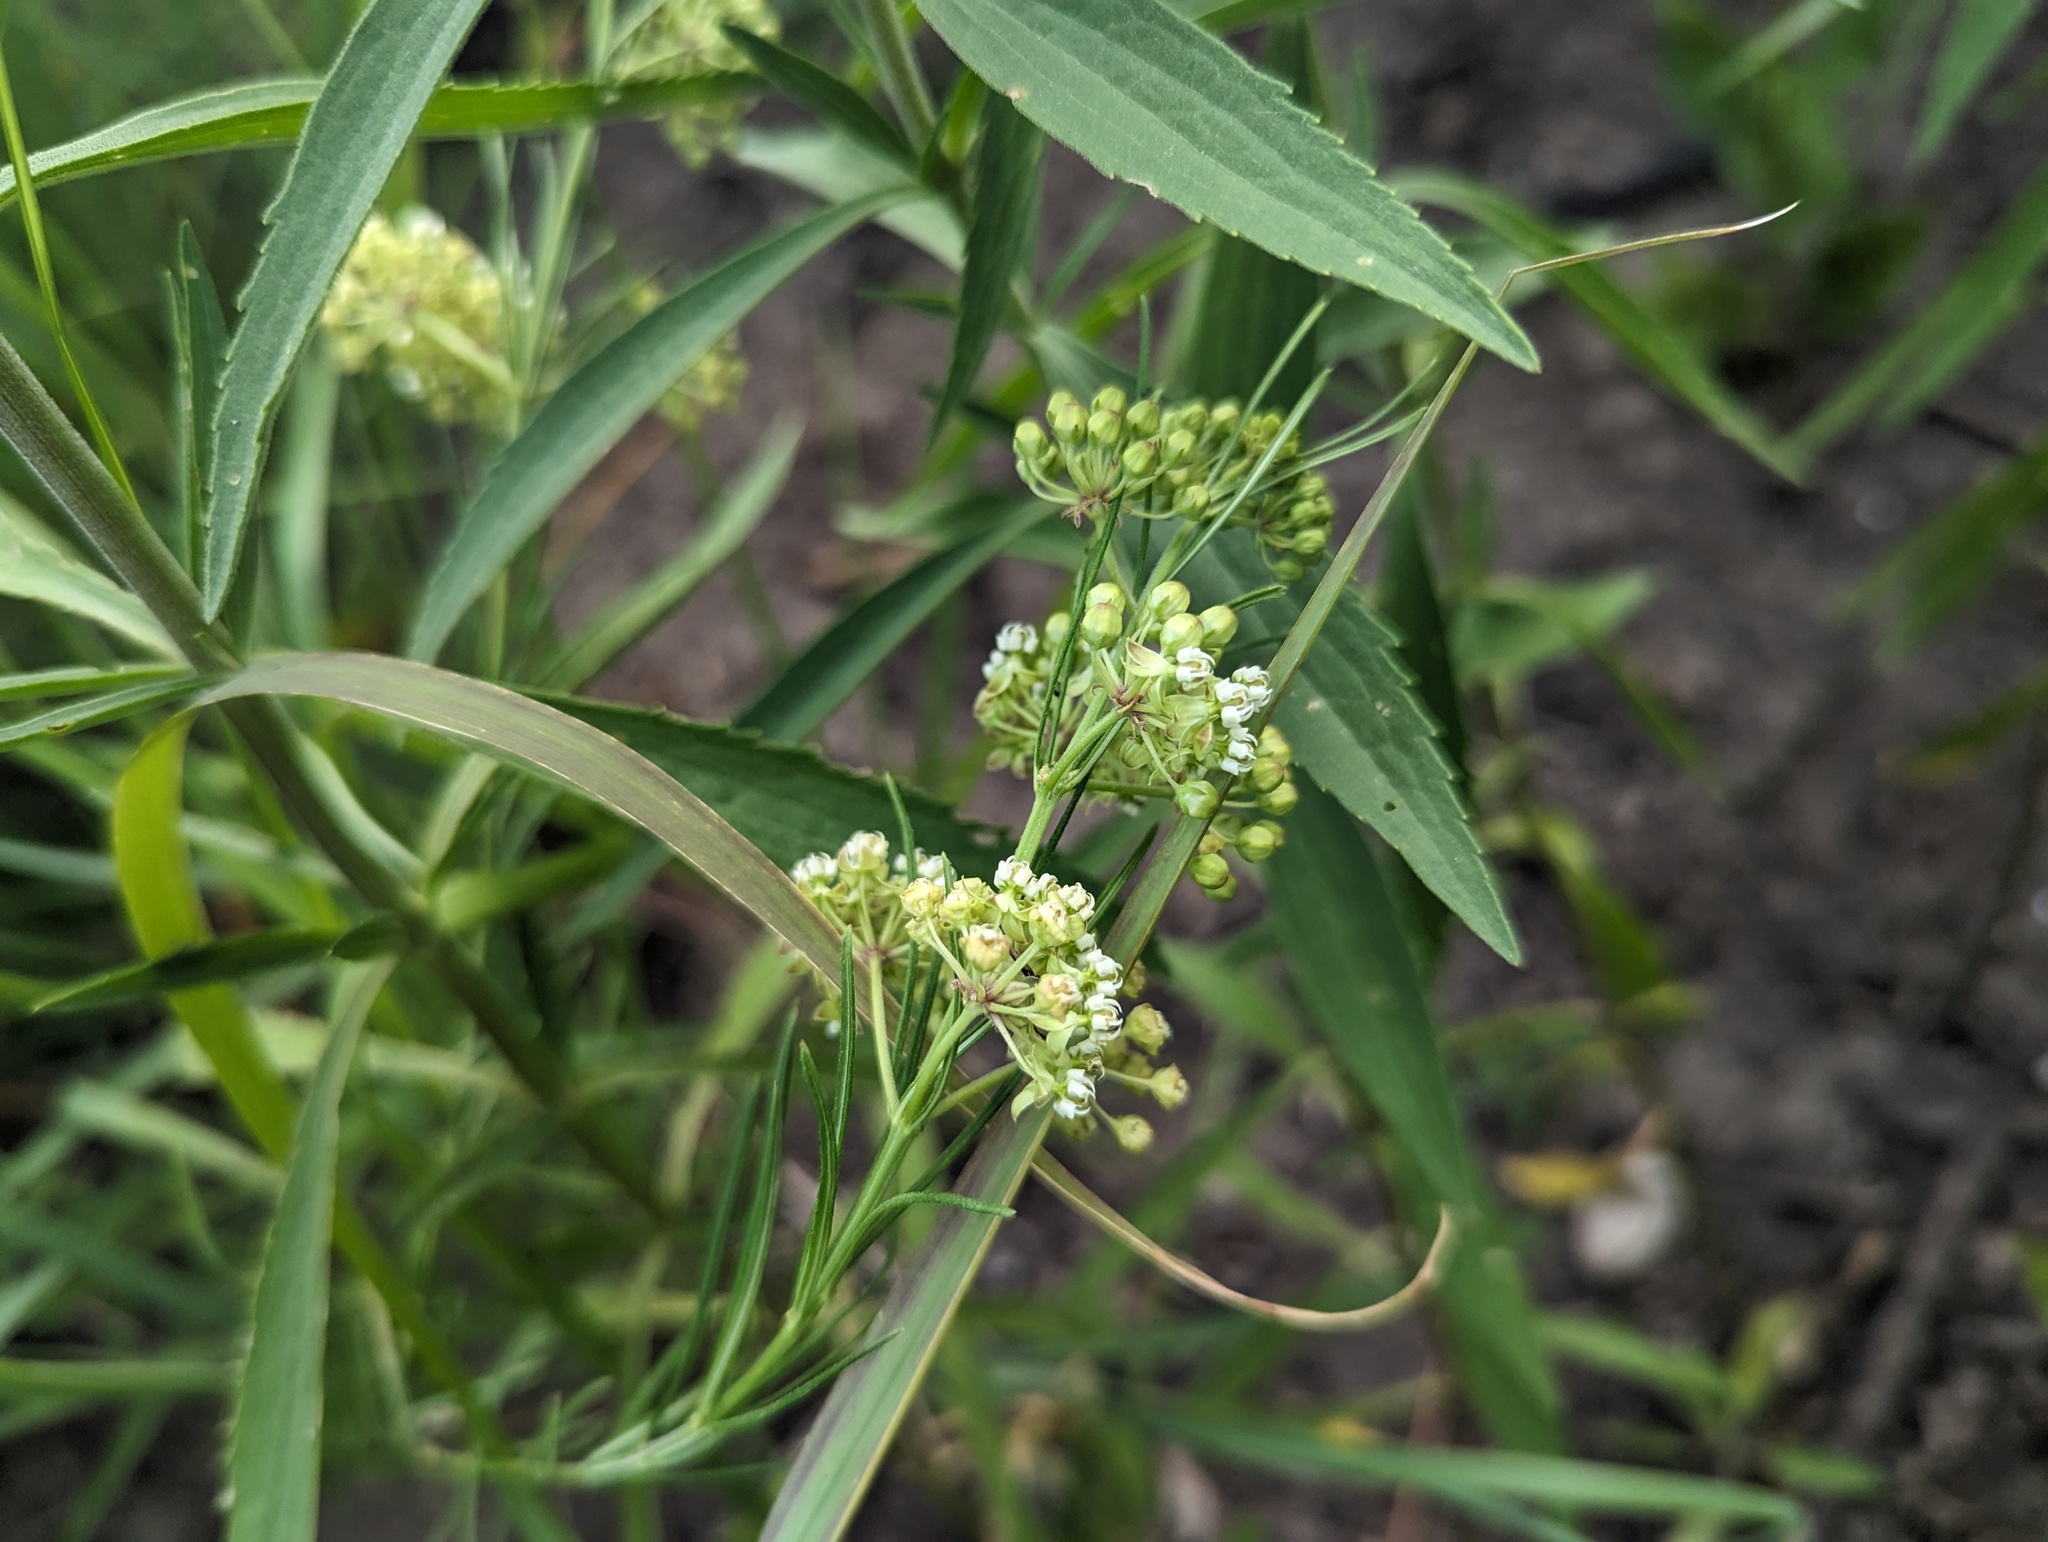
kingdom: Plantae
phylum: Tracheophyta
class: Magnoliopsida
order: Gentianales
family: Apocynaceae
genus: Asclepias
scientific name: Asclepias verticillata
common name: Eastern whorled milkweed
